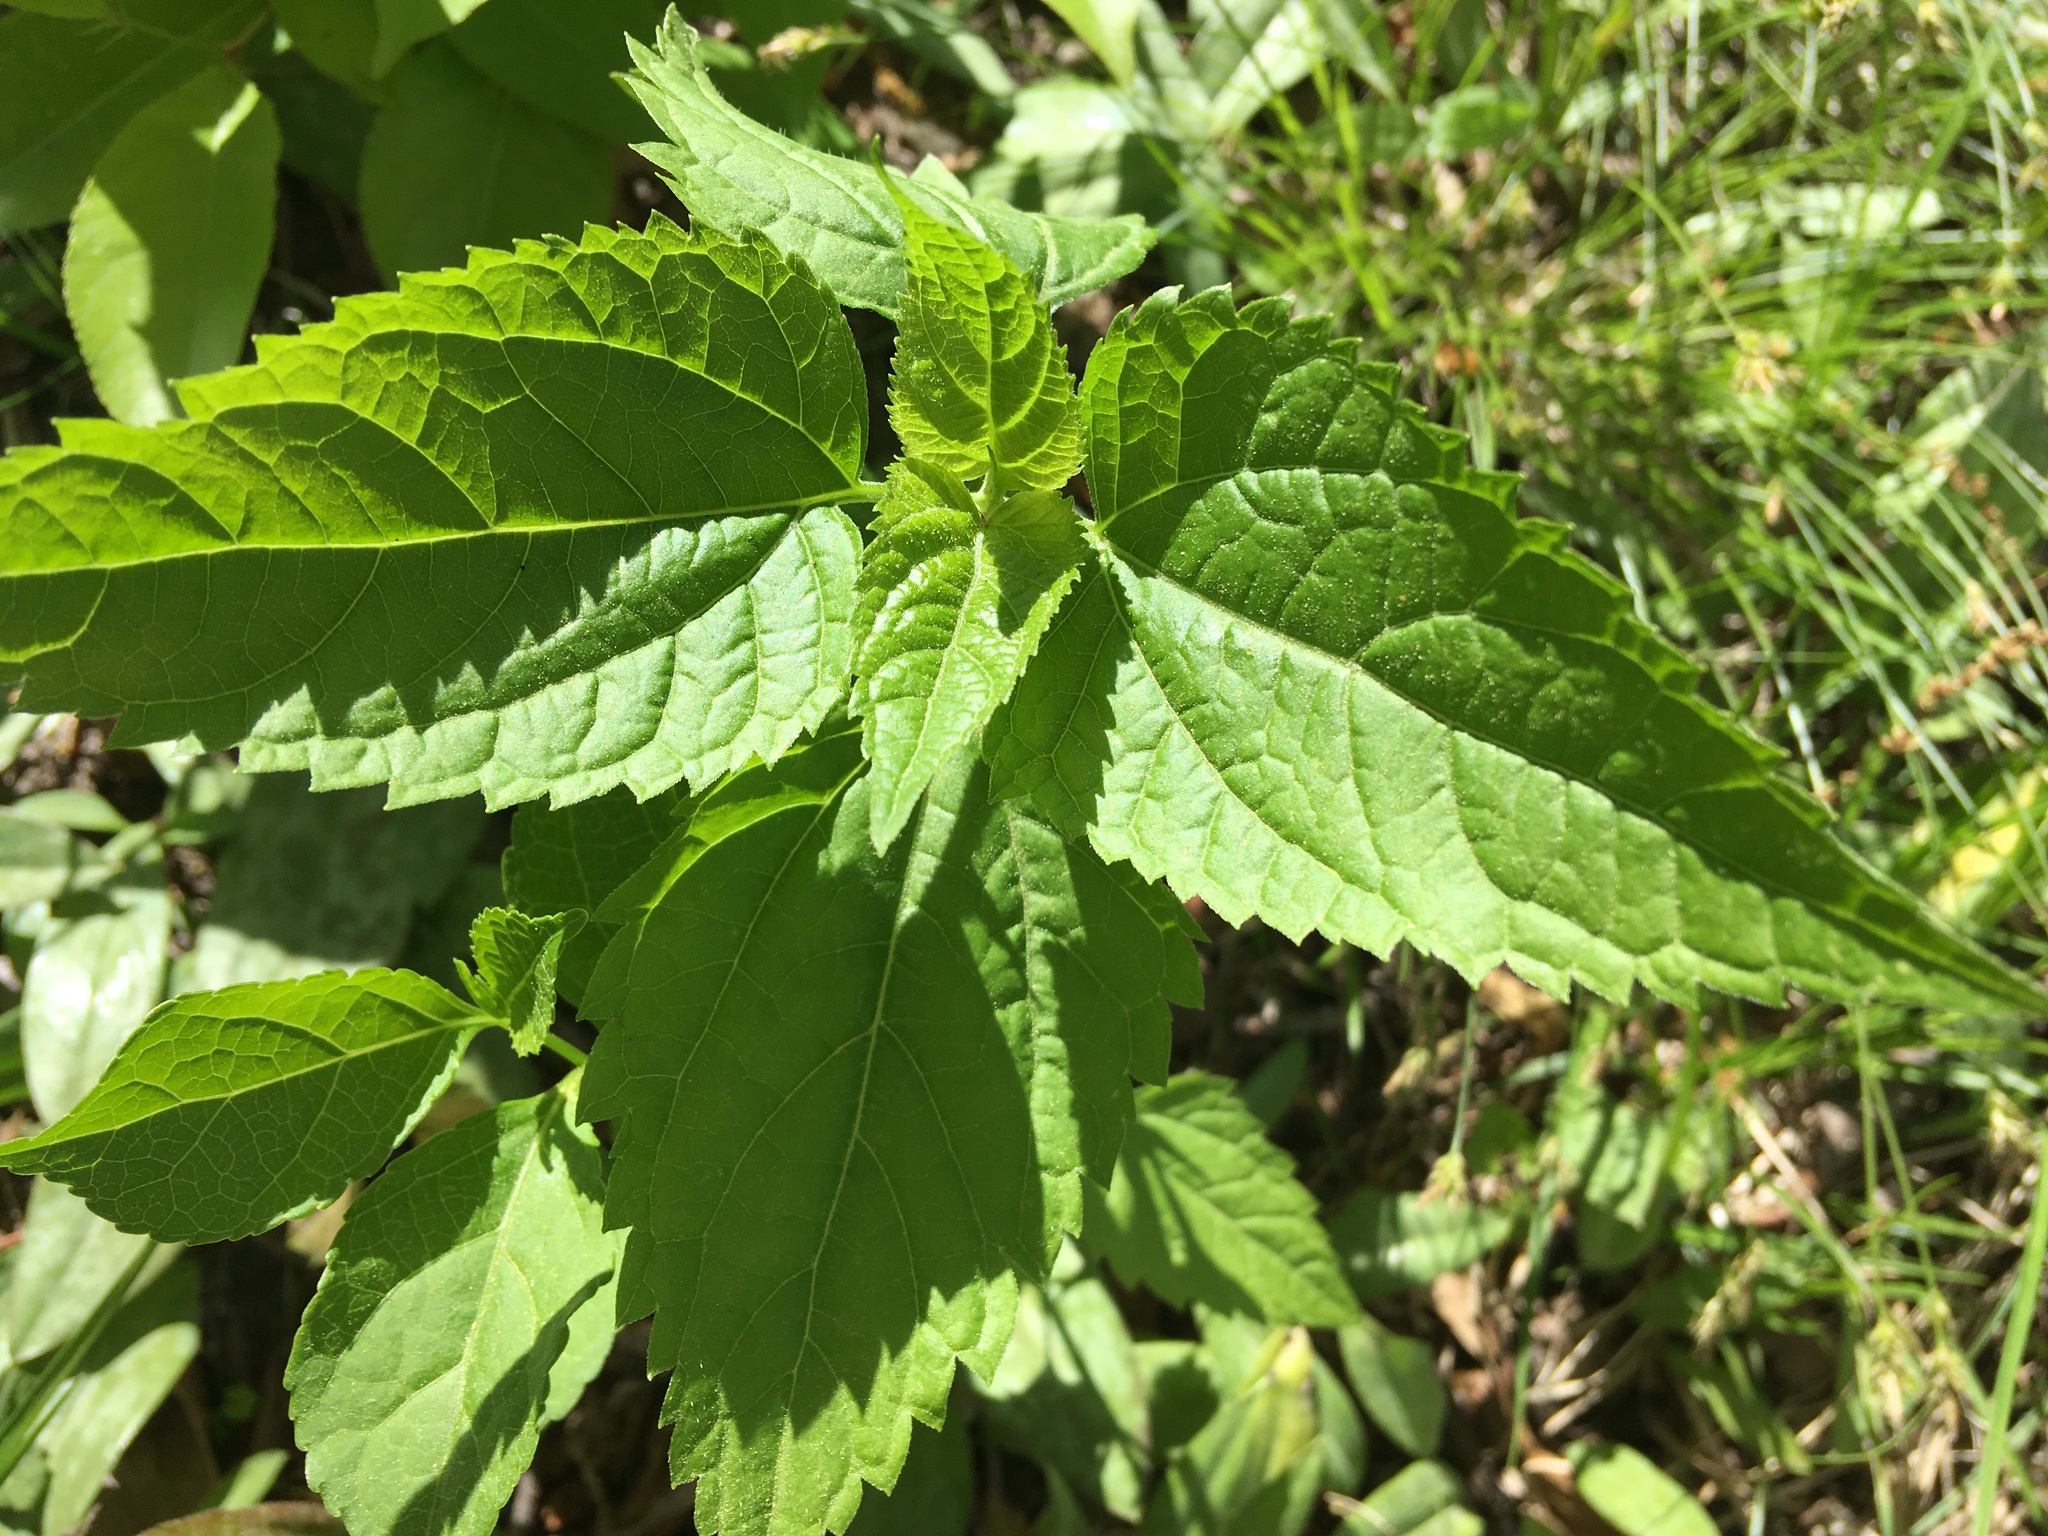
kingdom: Plantae
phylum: Tracheophyta
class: Magnoliopsida
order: Asterales
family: Asteraceae
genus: Ageratina
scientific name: Ageratina altissima
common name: White snakeroot
